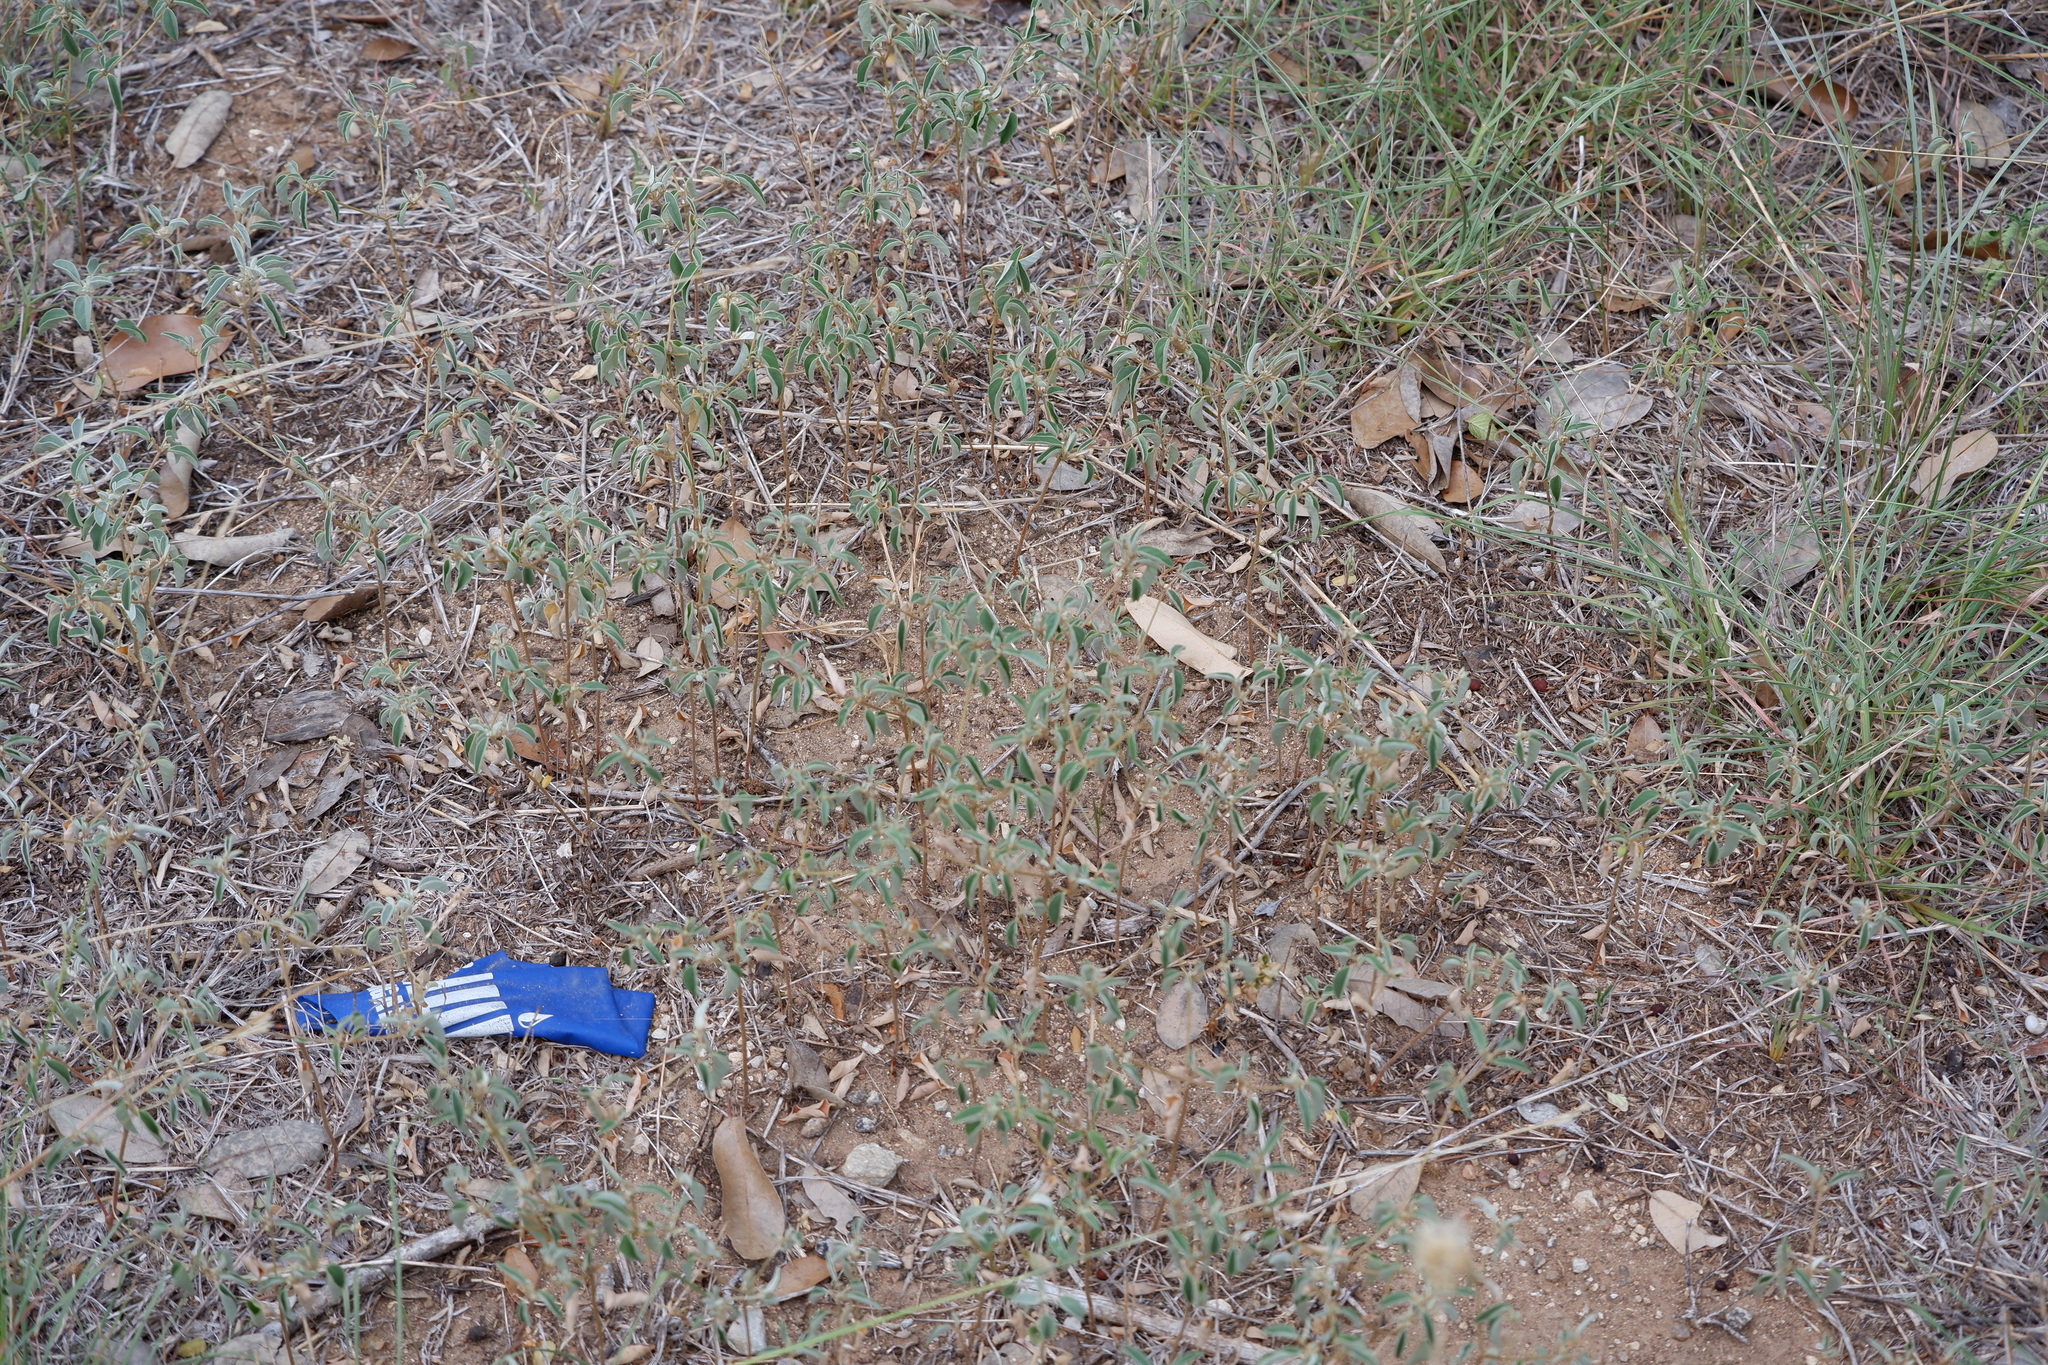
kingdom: Plantae
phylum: Tracheophyta
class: Magnoliopsida
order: Malpighiales
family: Euphorbiaceae
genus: Croton
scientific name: Croton monanthogynus
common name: One-seed croton
